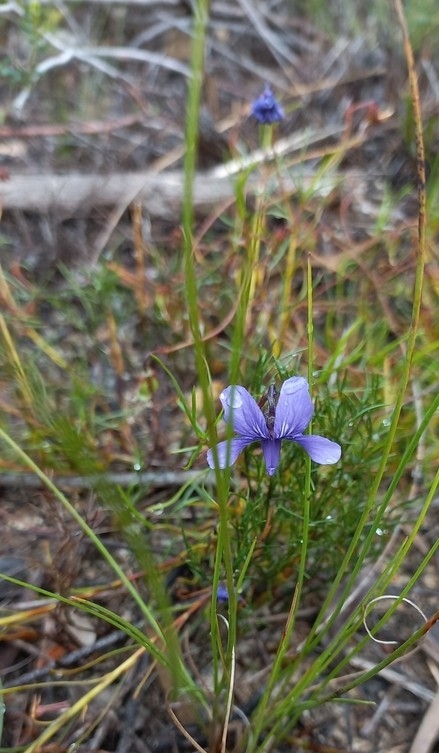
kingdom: Plantae
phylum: Tracheophyta
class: Magnoliopsida
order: Malpighiales
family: Violaceae
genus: Viola
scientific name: Viola decumbens
